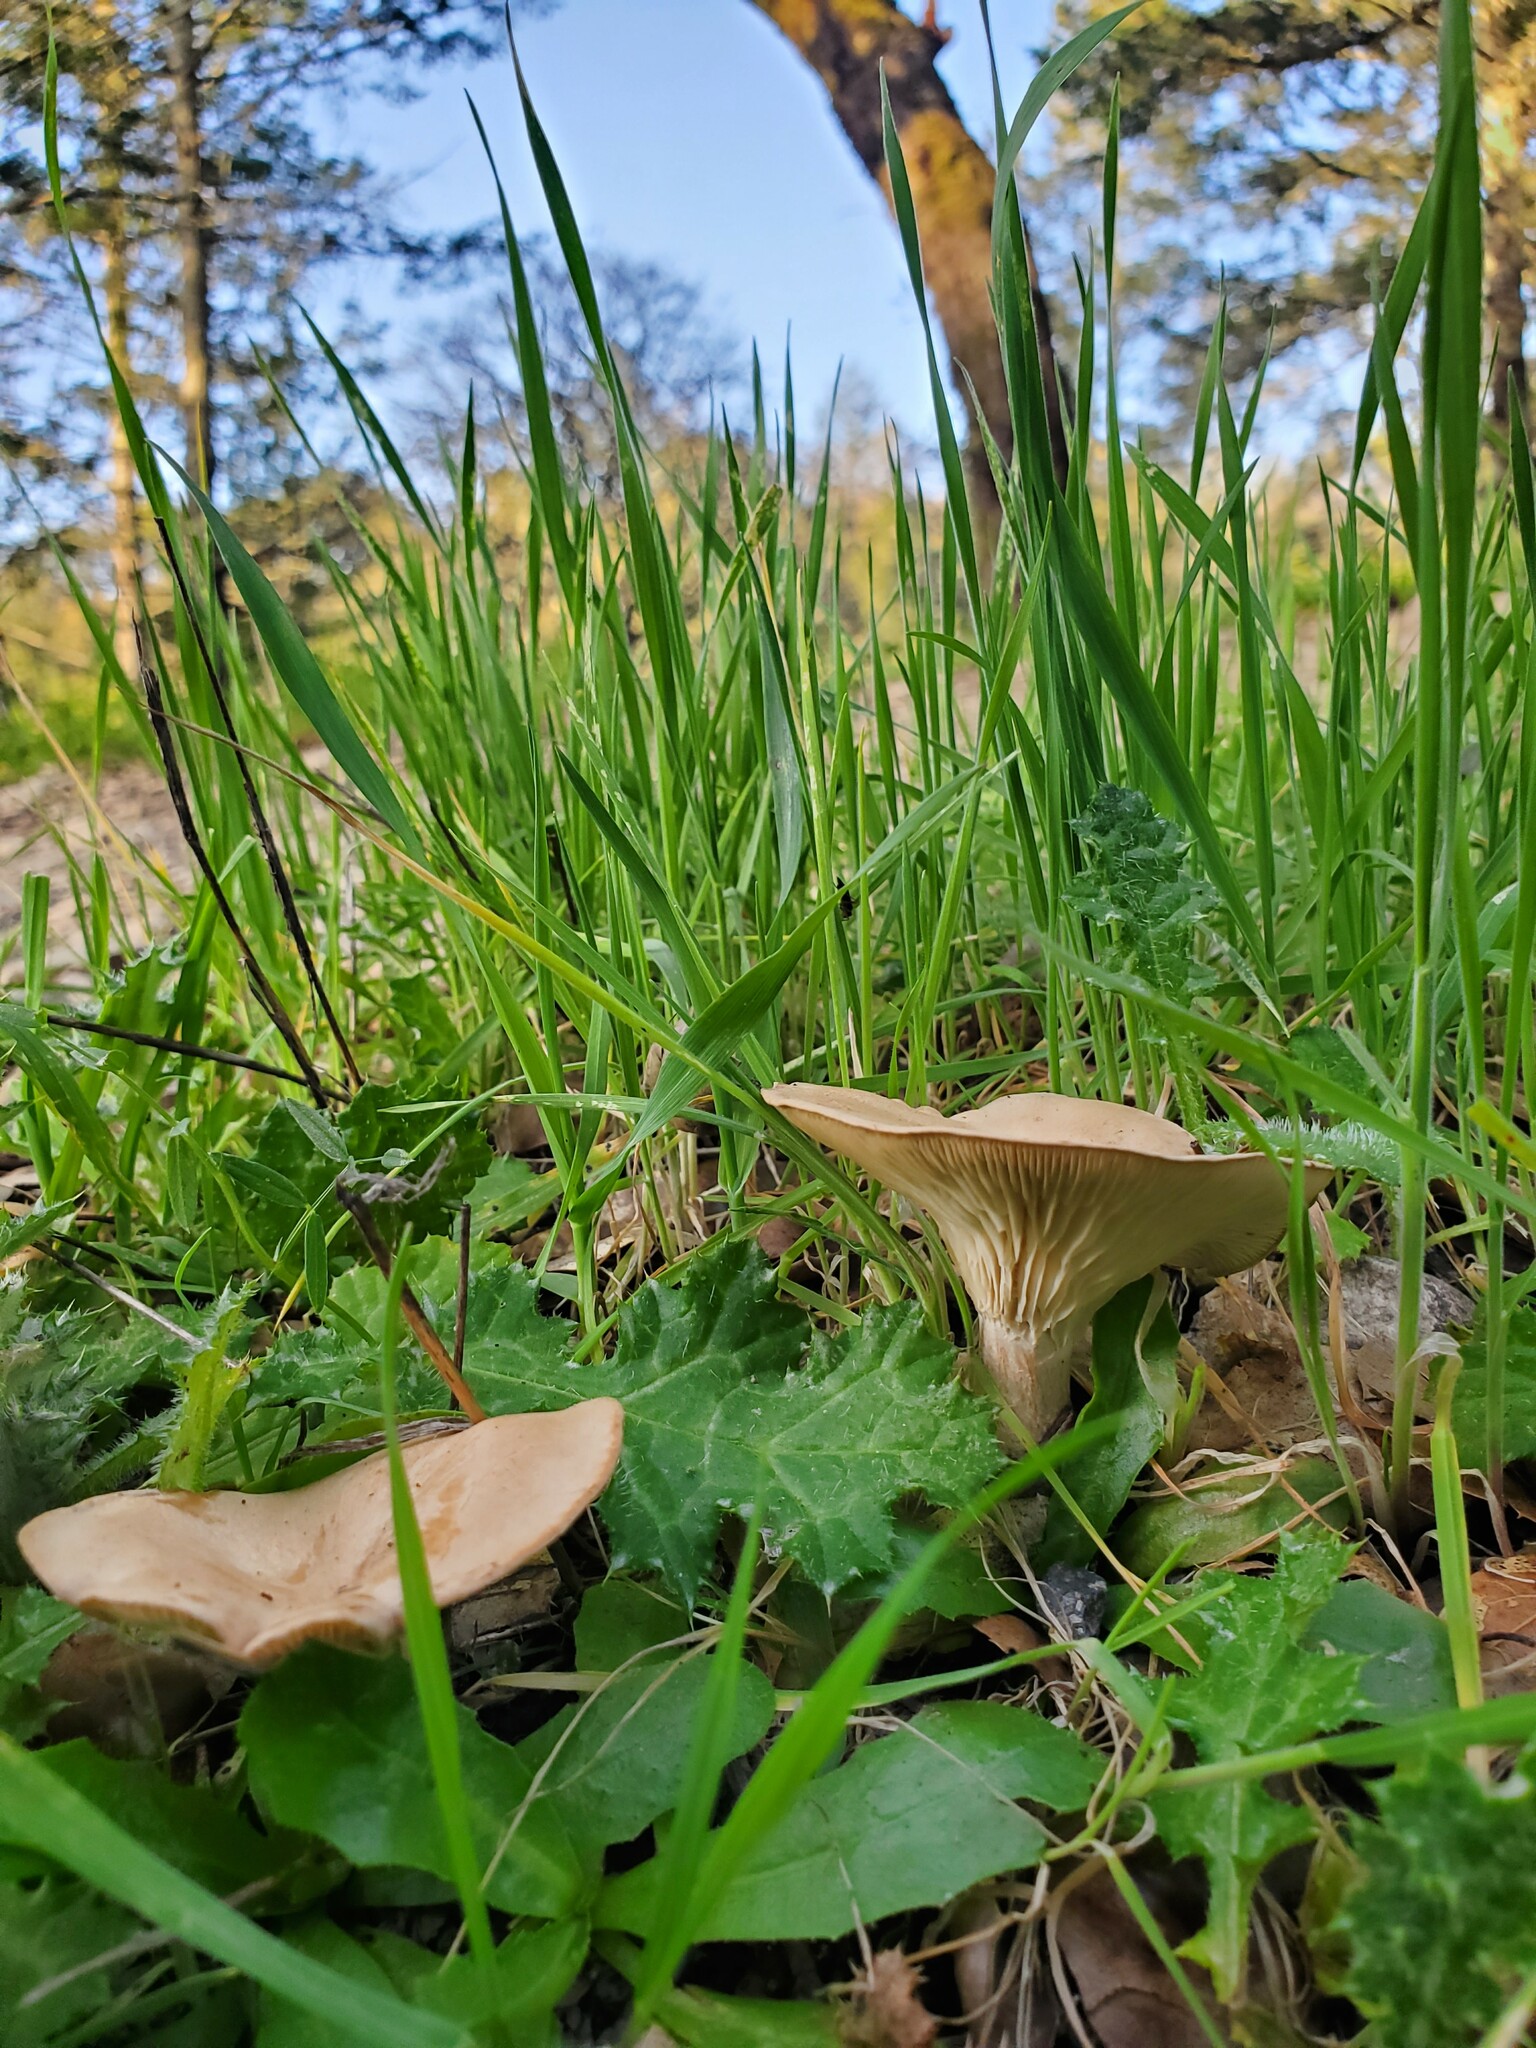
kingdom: Fungi
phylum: Basidiomycota
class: Agaricomycetes
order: Agaricales
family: Tricholomataceae
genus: Infundibulicybe
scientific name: Infundibulicybe gibba
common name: Common funnel
